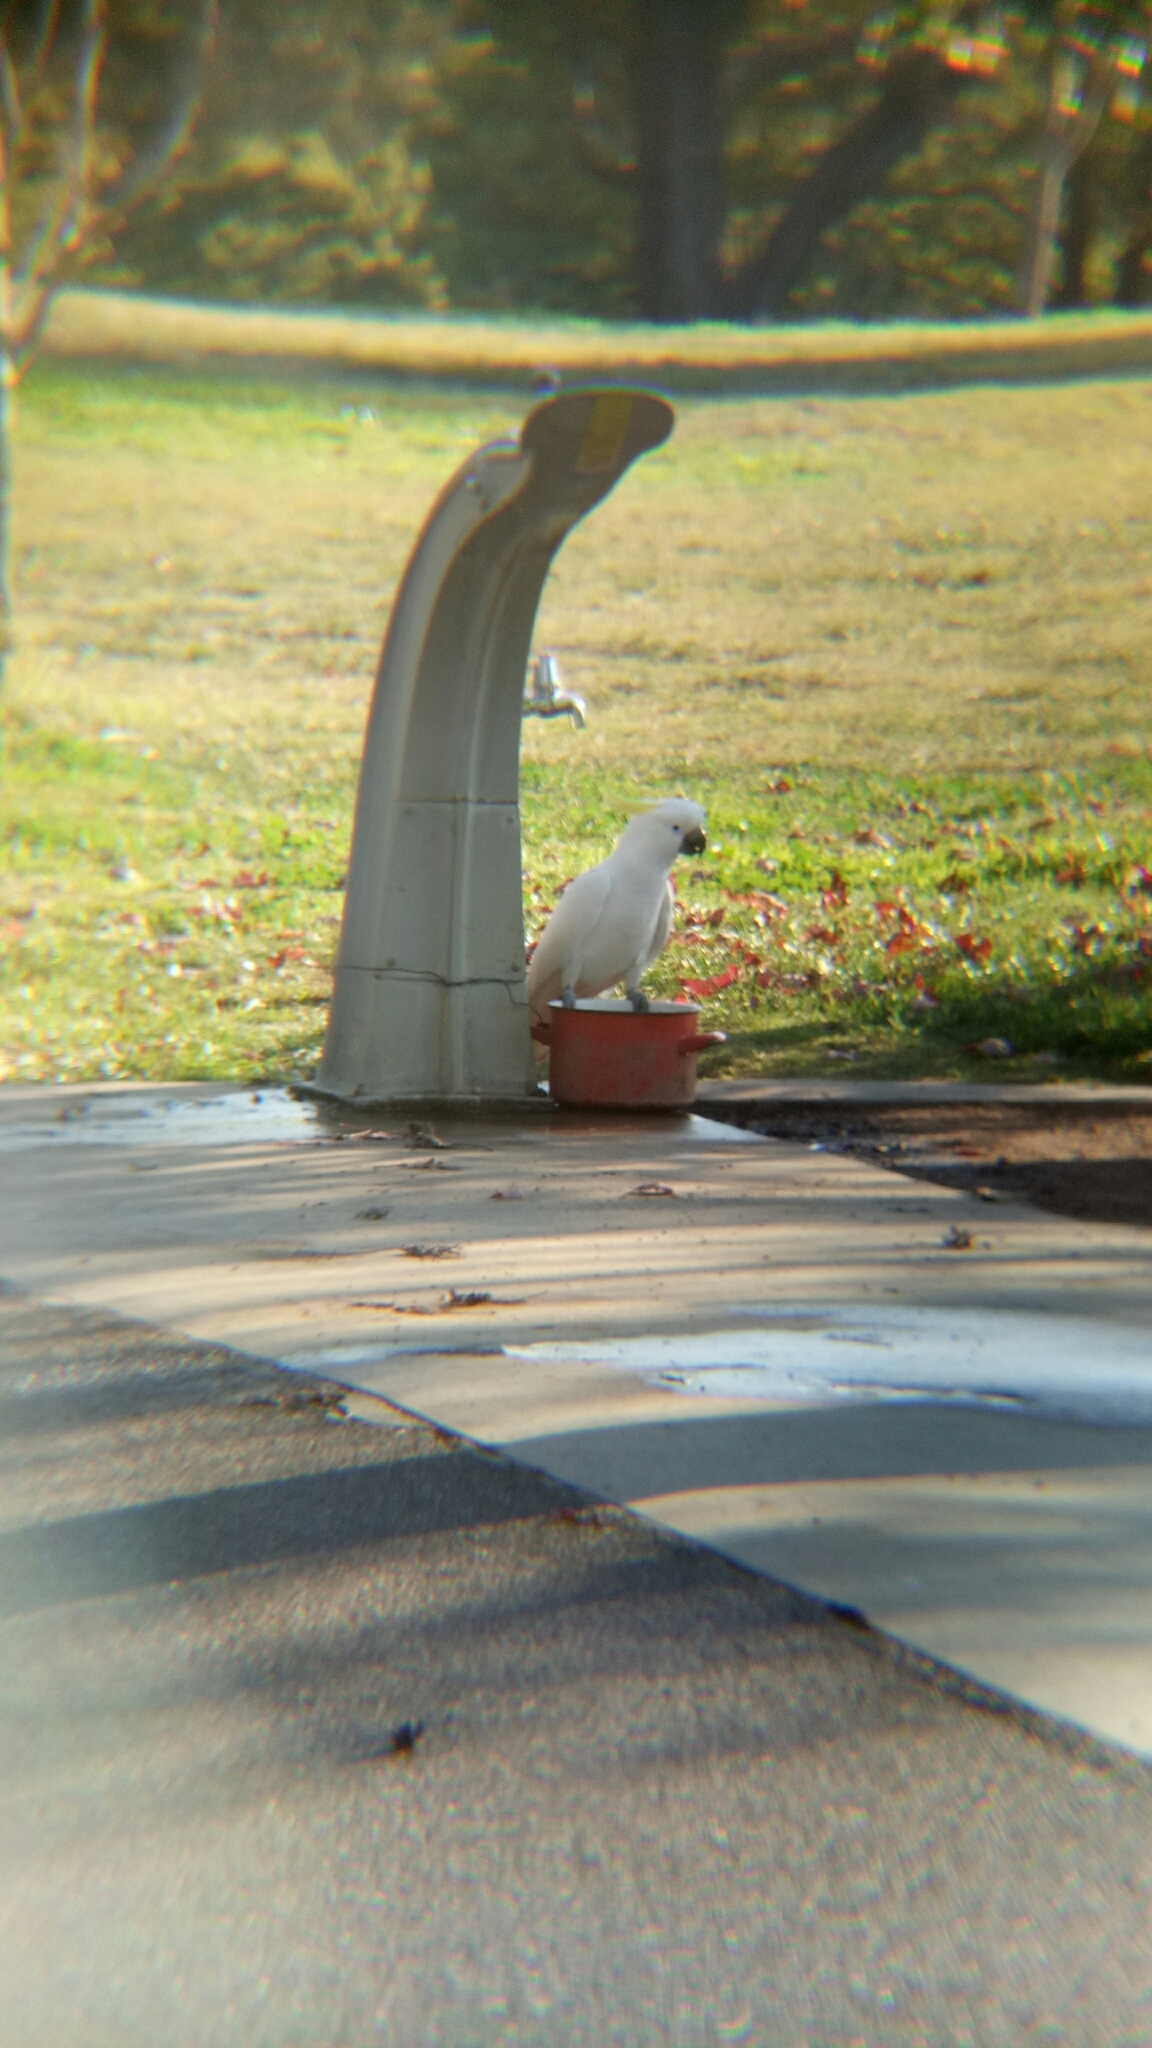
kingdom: Animalia
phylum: Chordata
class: Aves
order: Psittaciformes
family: Psittacidae
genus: Cacatua
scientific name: Cacatua galerita
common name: Sulphur-crested cockatoo
